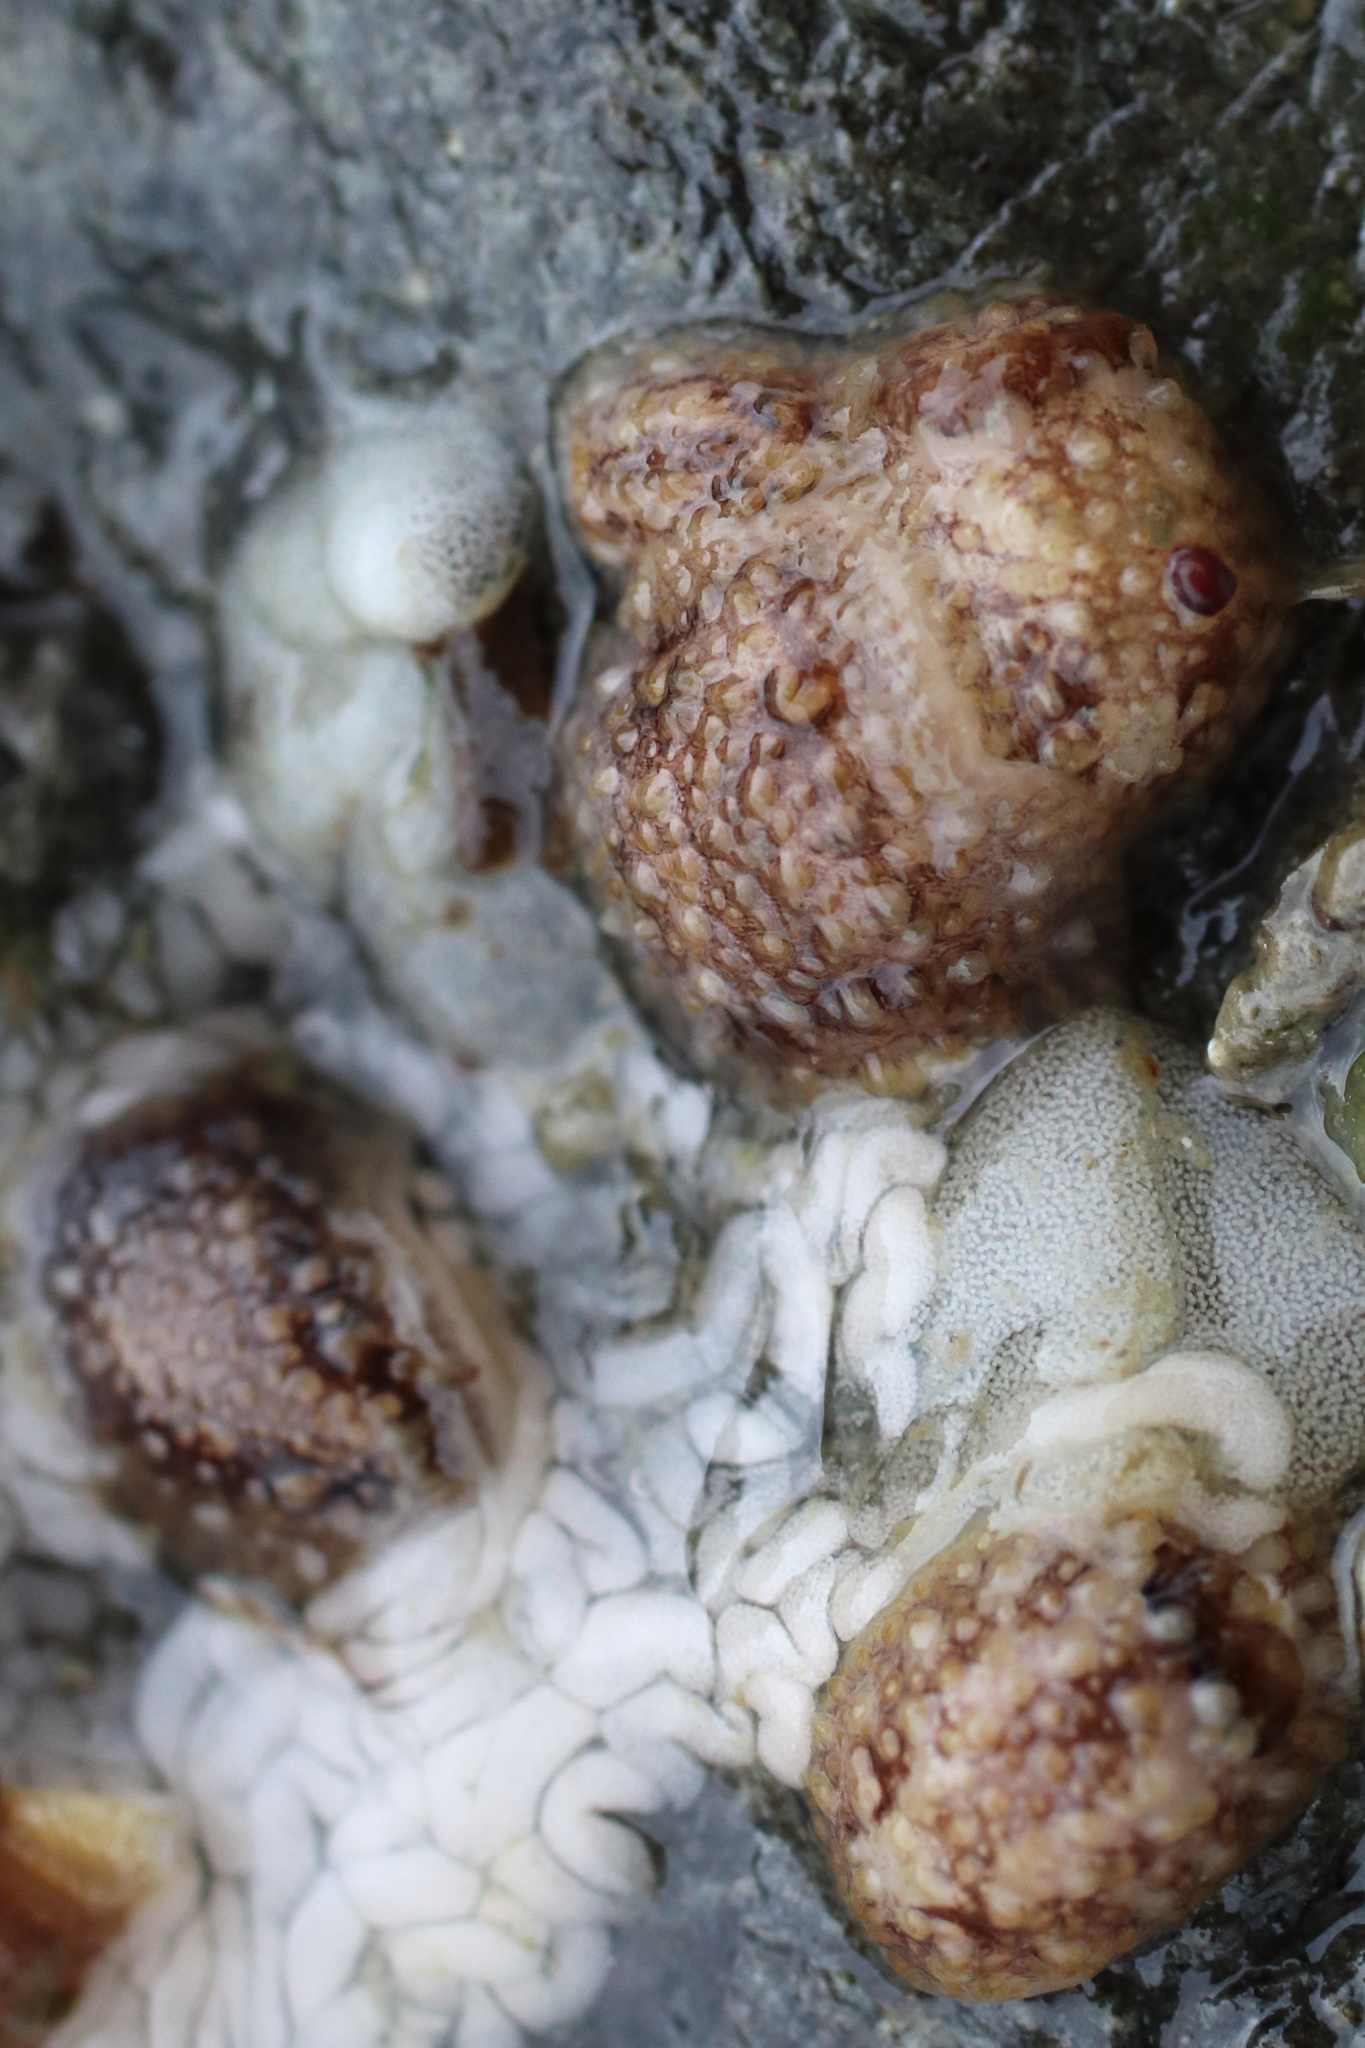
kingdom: Animalia
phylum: Mollusca
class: Gastropoda
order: Nudibranchia
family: Onchidorididae
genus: Onchidoris
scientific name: Onchidoris bilamellata
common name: Barnacle-eating onchidoris
